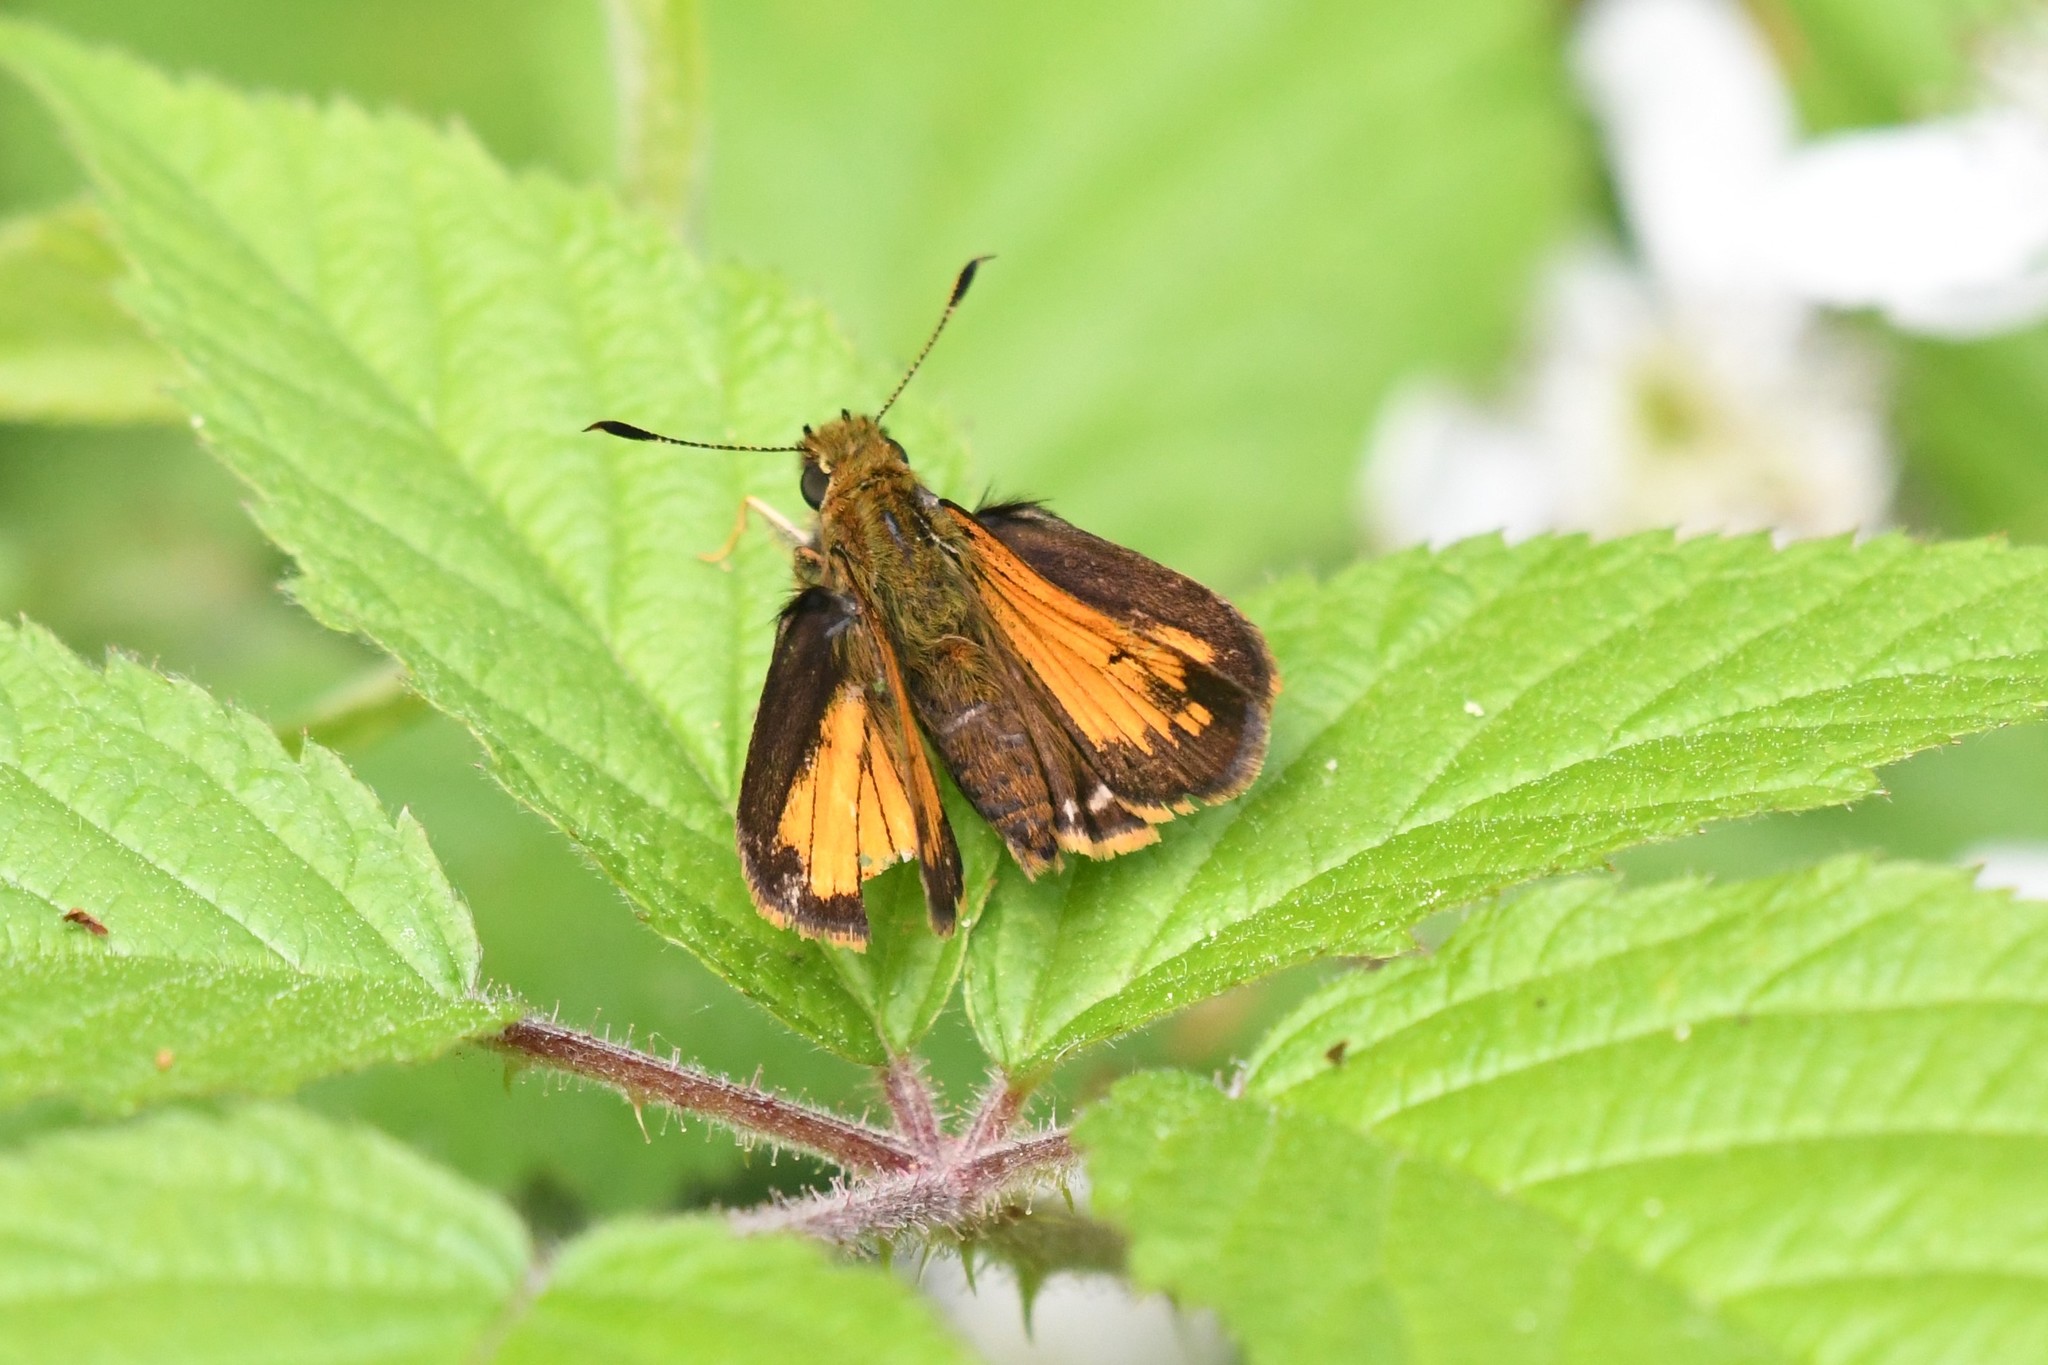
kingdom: Animalia
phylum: Arthropoda
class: Insecta
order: Lepidoptera
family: Hesperiidae
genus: Lon
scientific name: Lon hobomok
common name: Hobomok skipper
